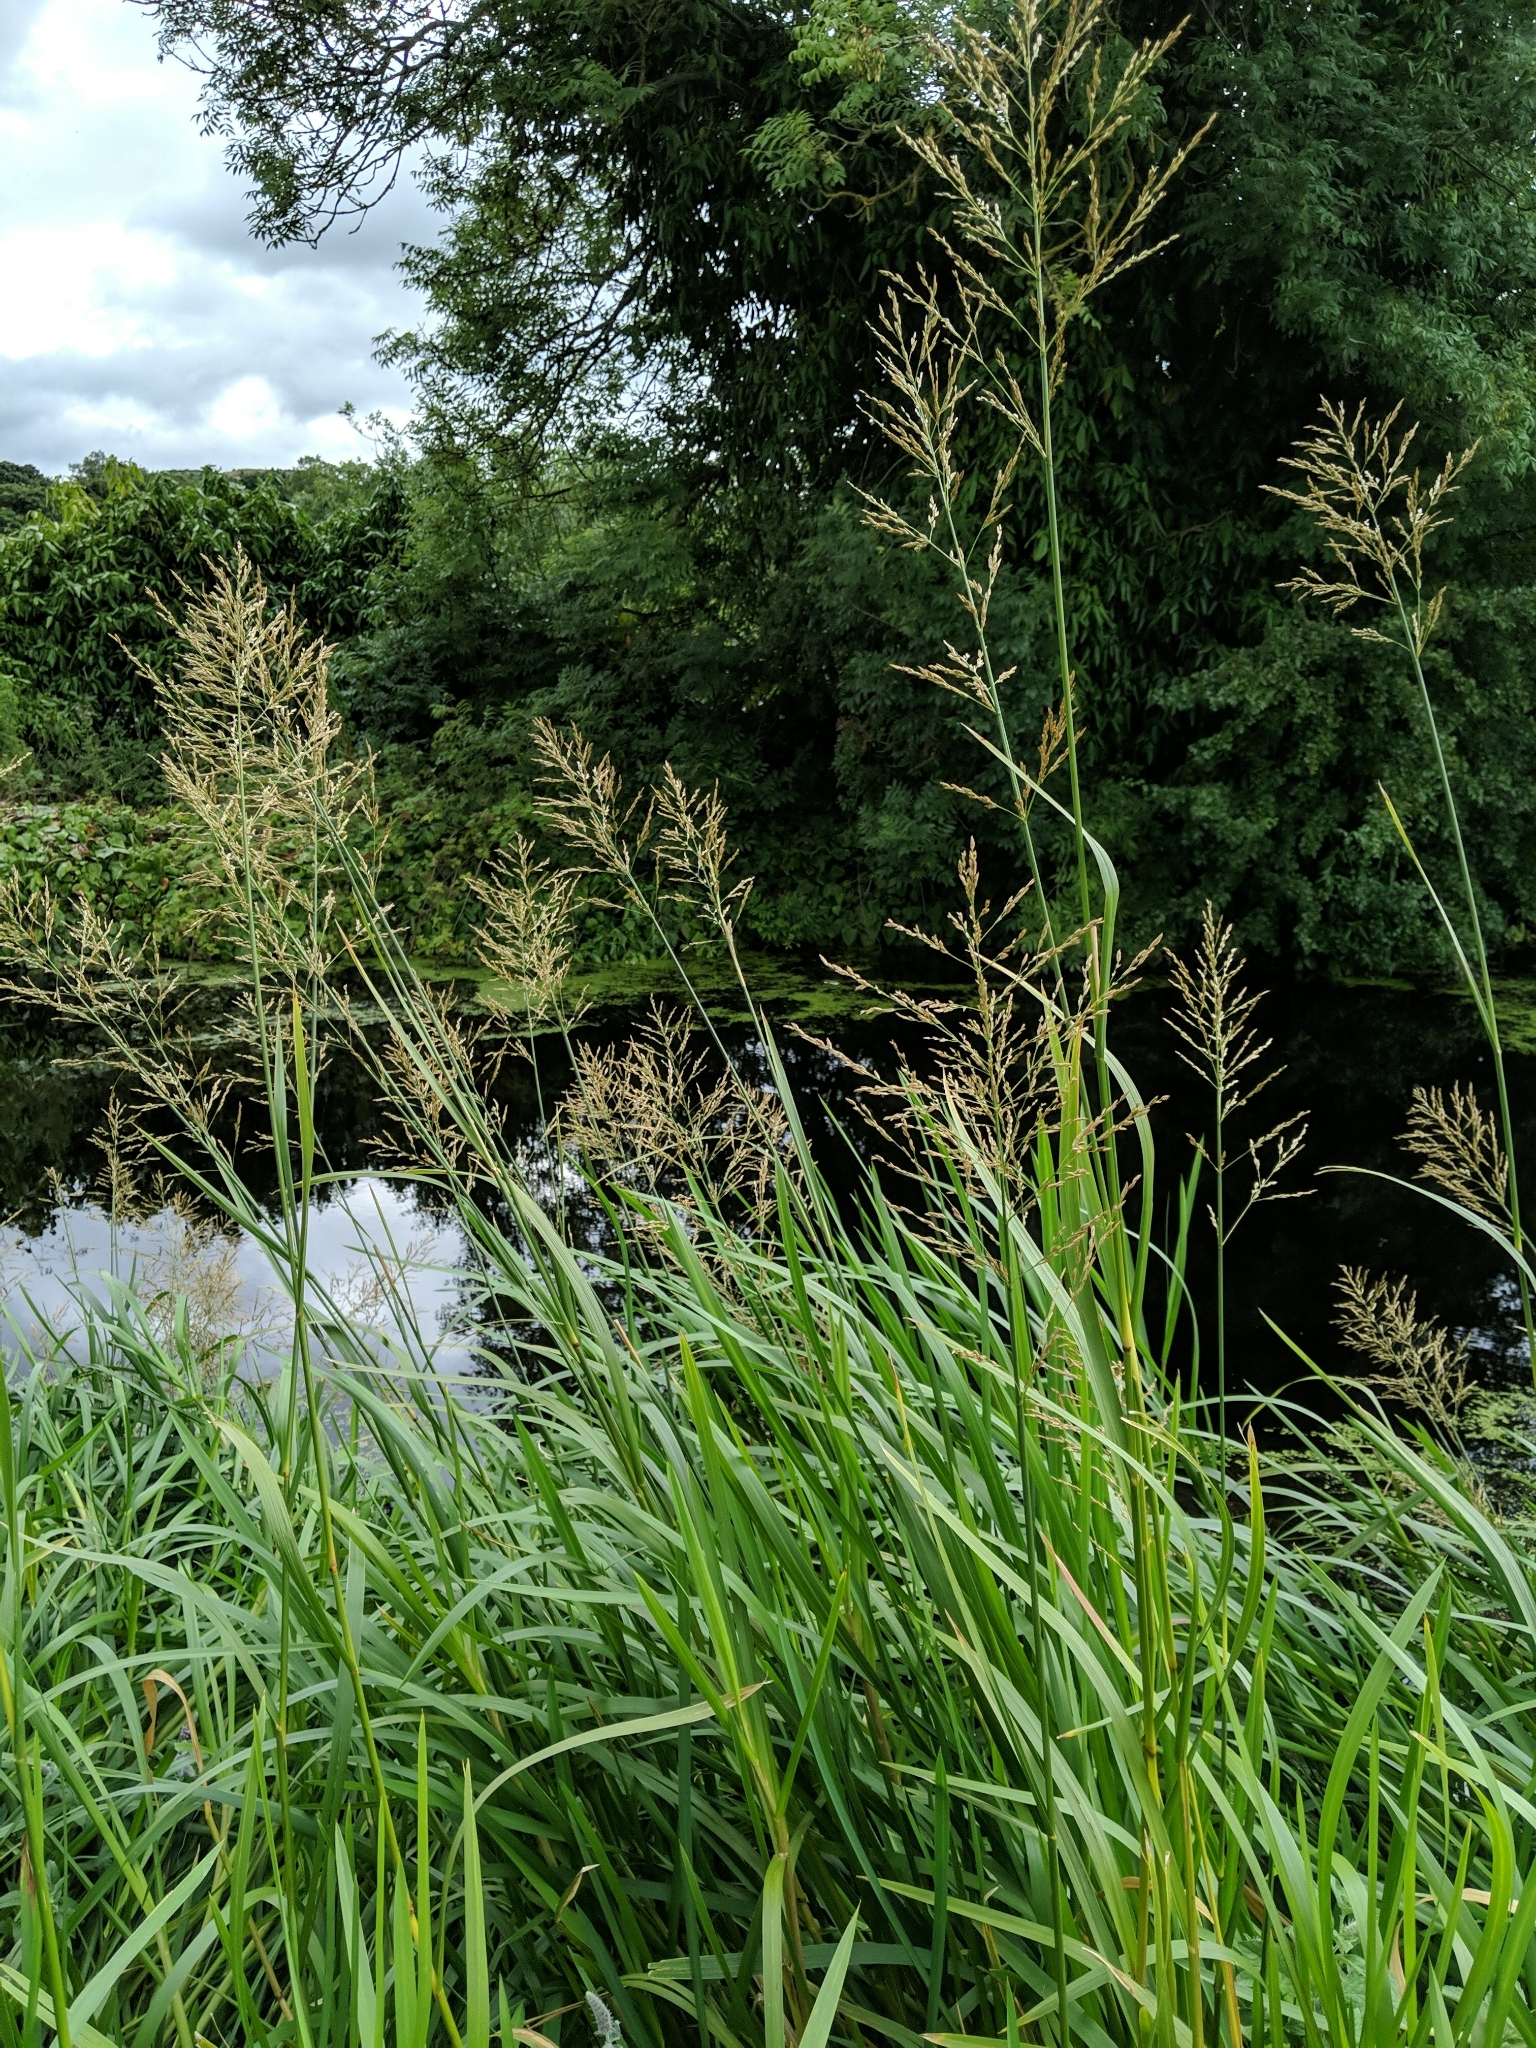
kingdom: Plantae
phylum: Tracheophyta
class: Liliopsida
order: Poales
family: Poaceae
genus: Glyceria
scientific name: Glyceria maxima
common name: Reed mannagrass
